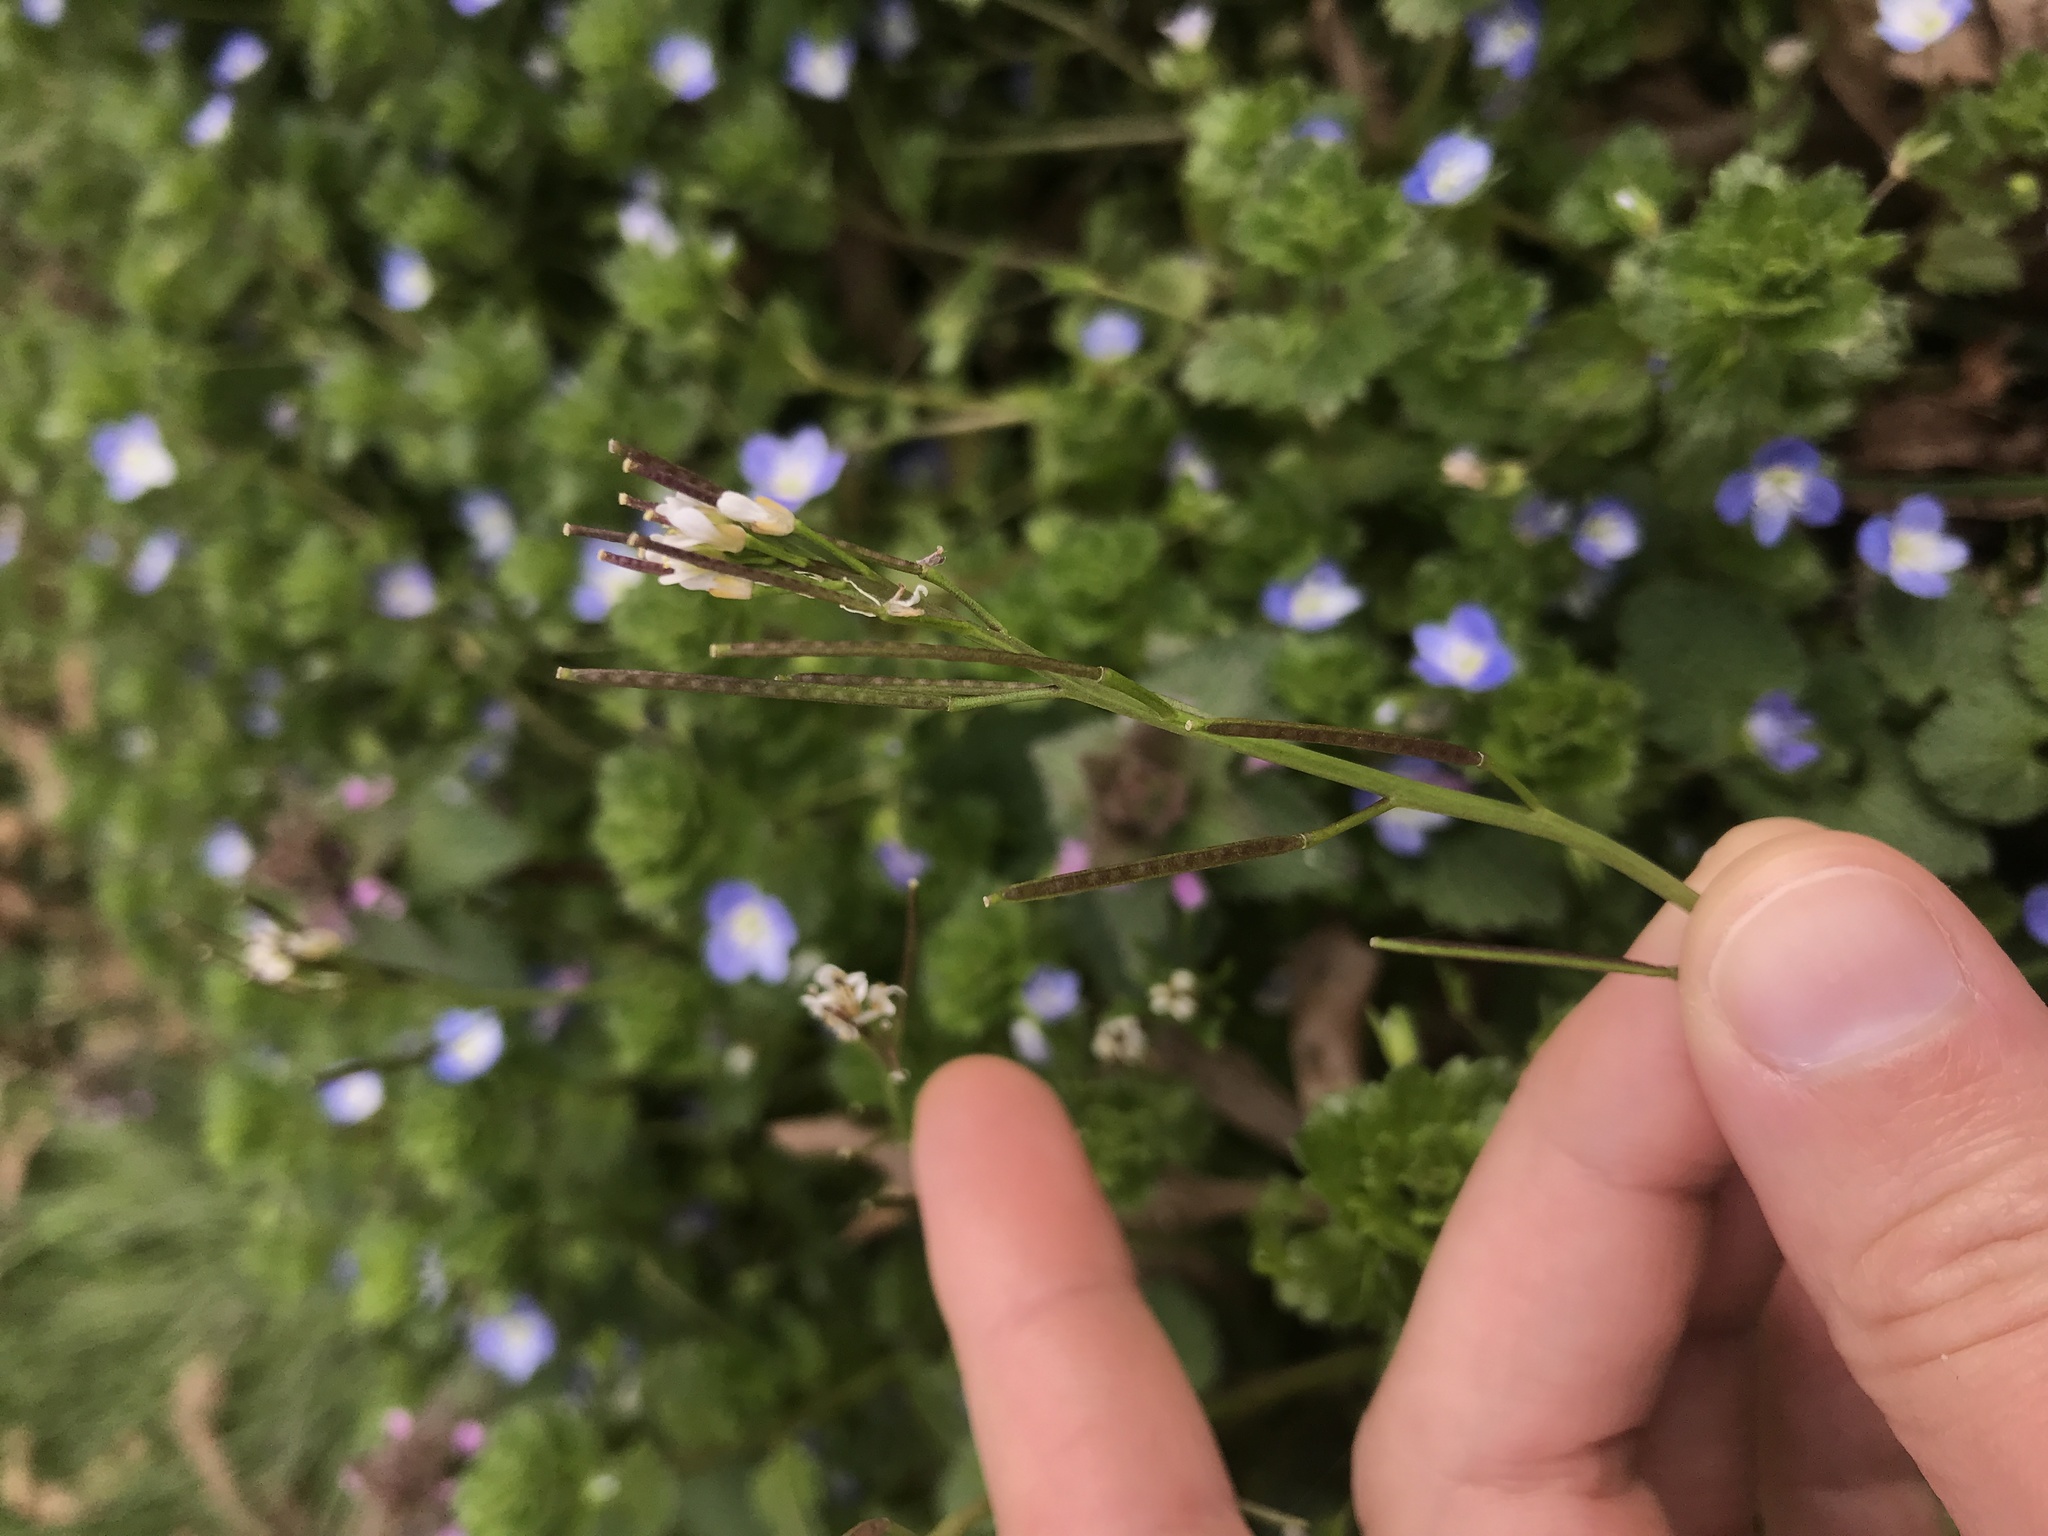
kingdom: Plantae
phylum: Tracheophyta
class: Magnoliopsida
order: Brassicales
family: Brassicaceae
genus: Cardamine
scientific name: Cardamine hirsuta
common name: Hairy bittercress
